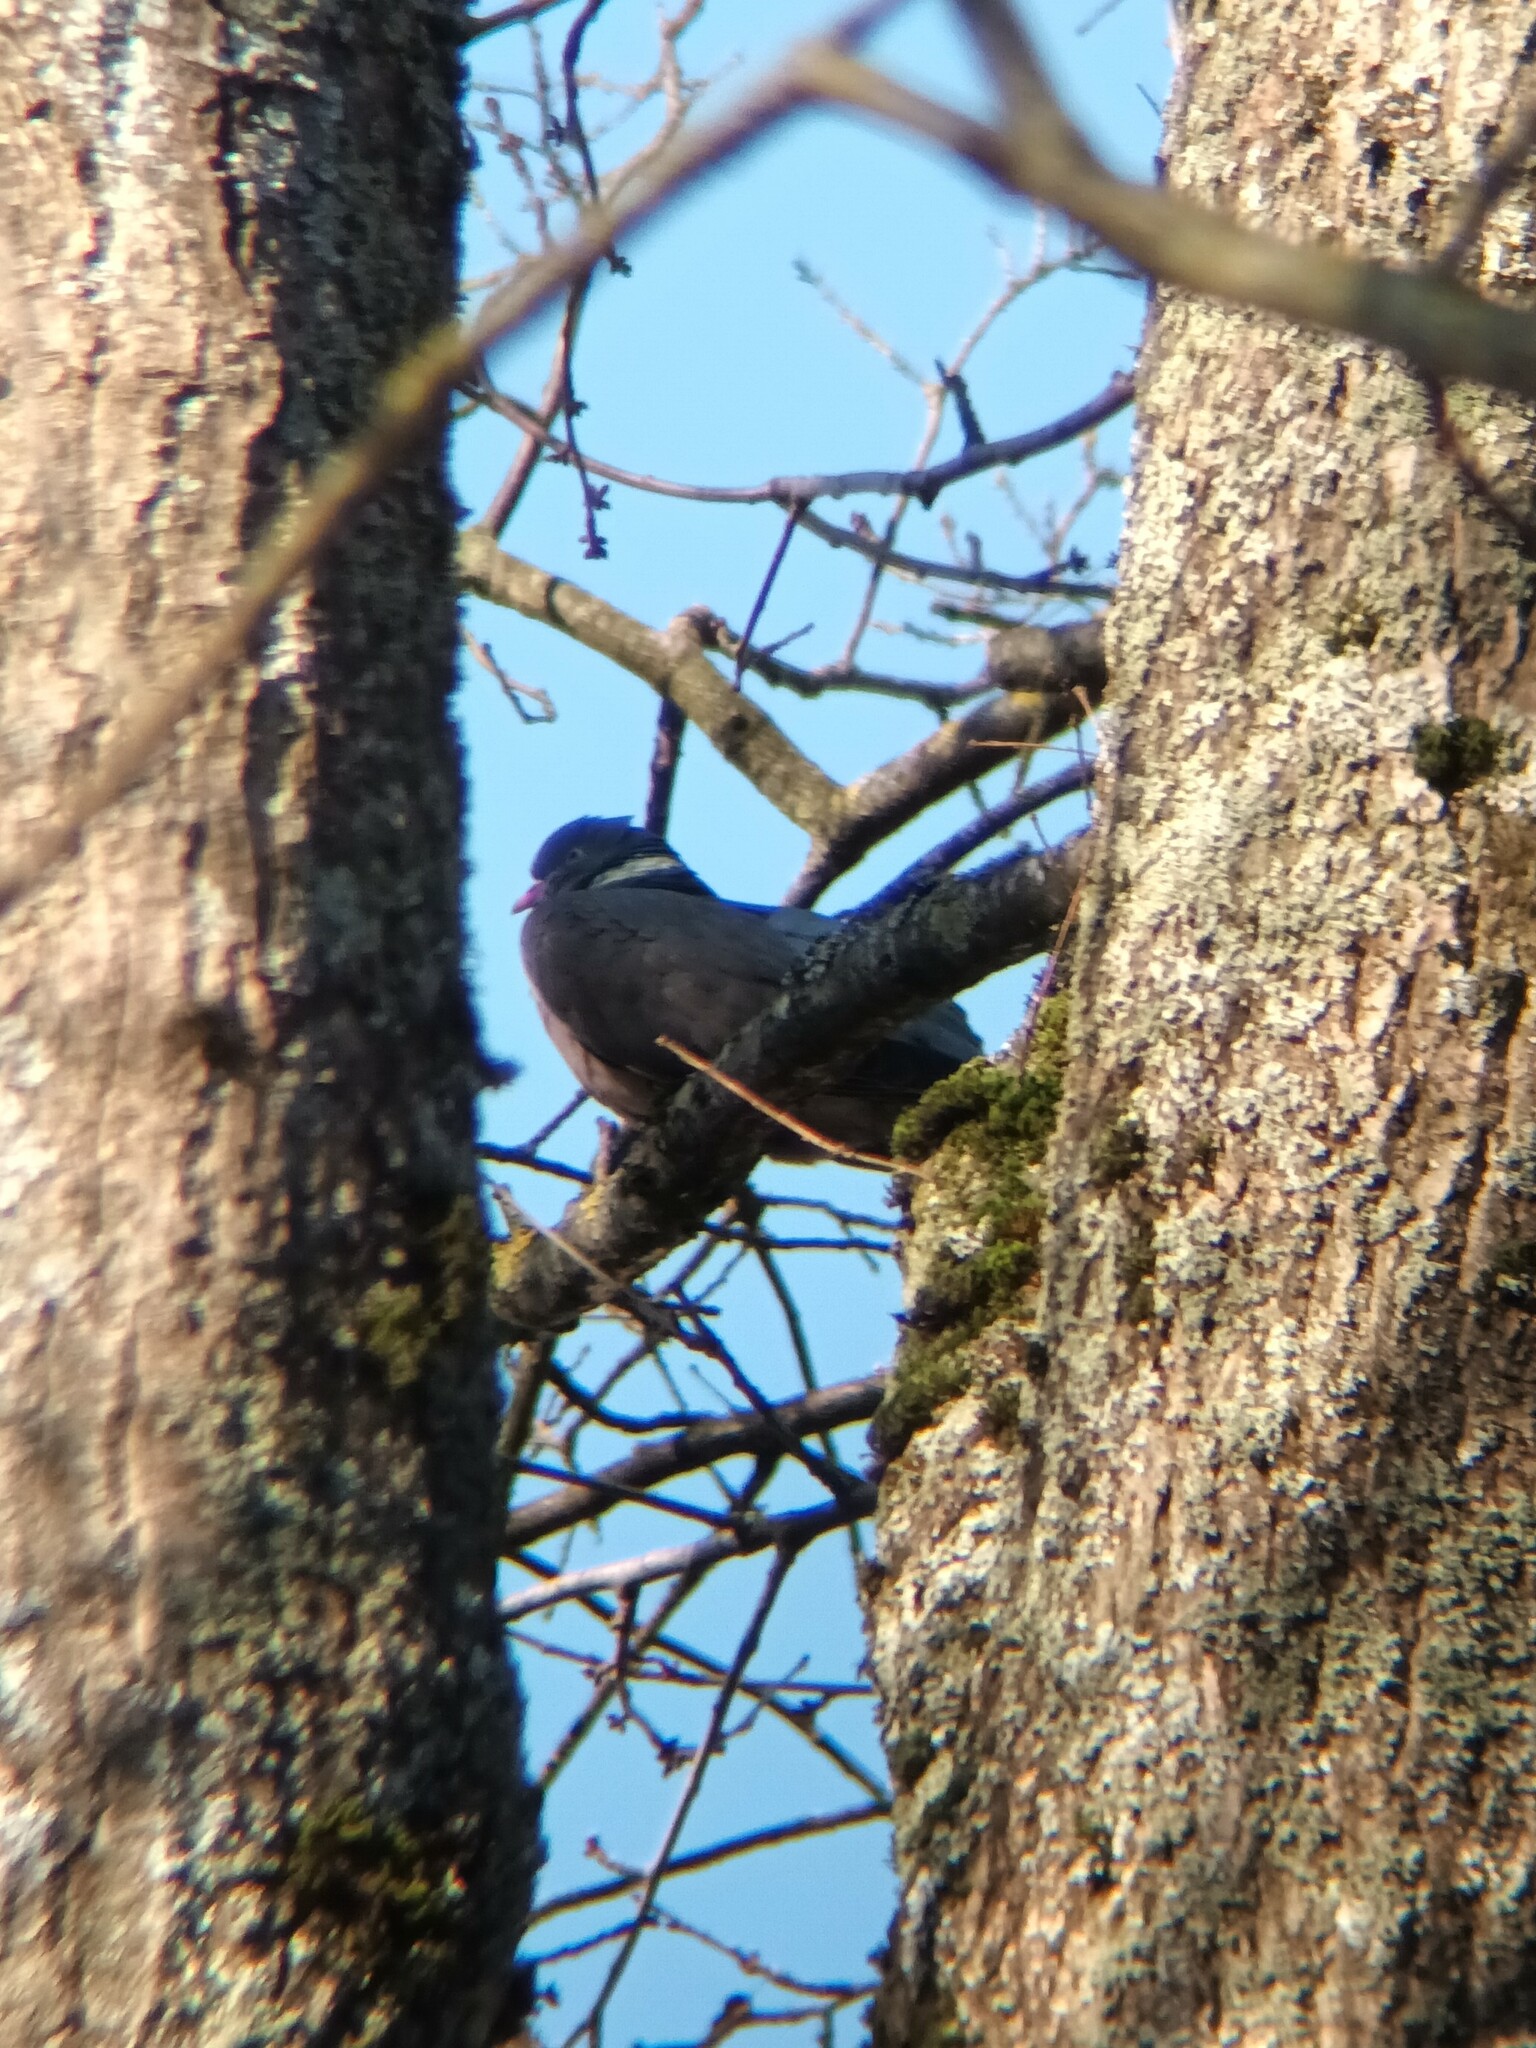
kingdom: Animalia
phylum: Chordata
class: Aves
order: Columbiformes
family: Columbidae
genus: Columba
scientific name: Columba palumbus
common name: Common wood pigeon
